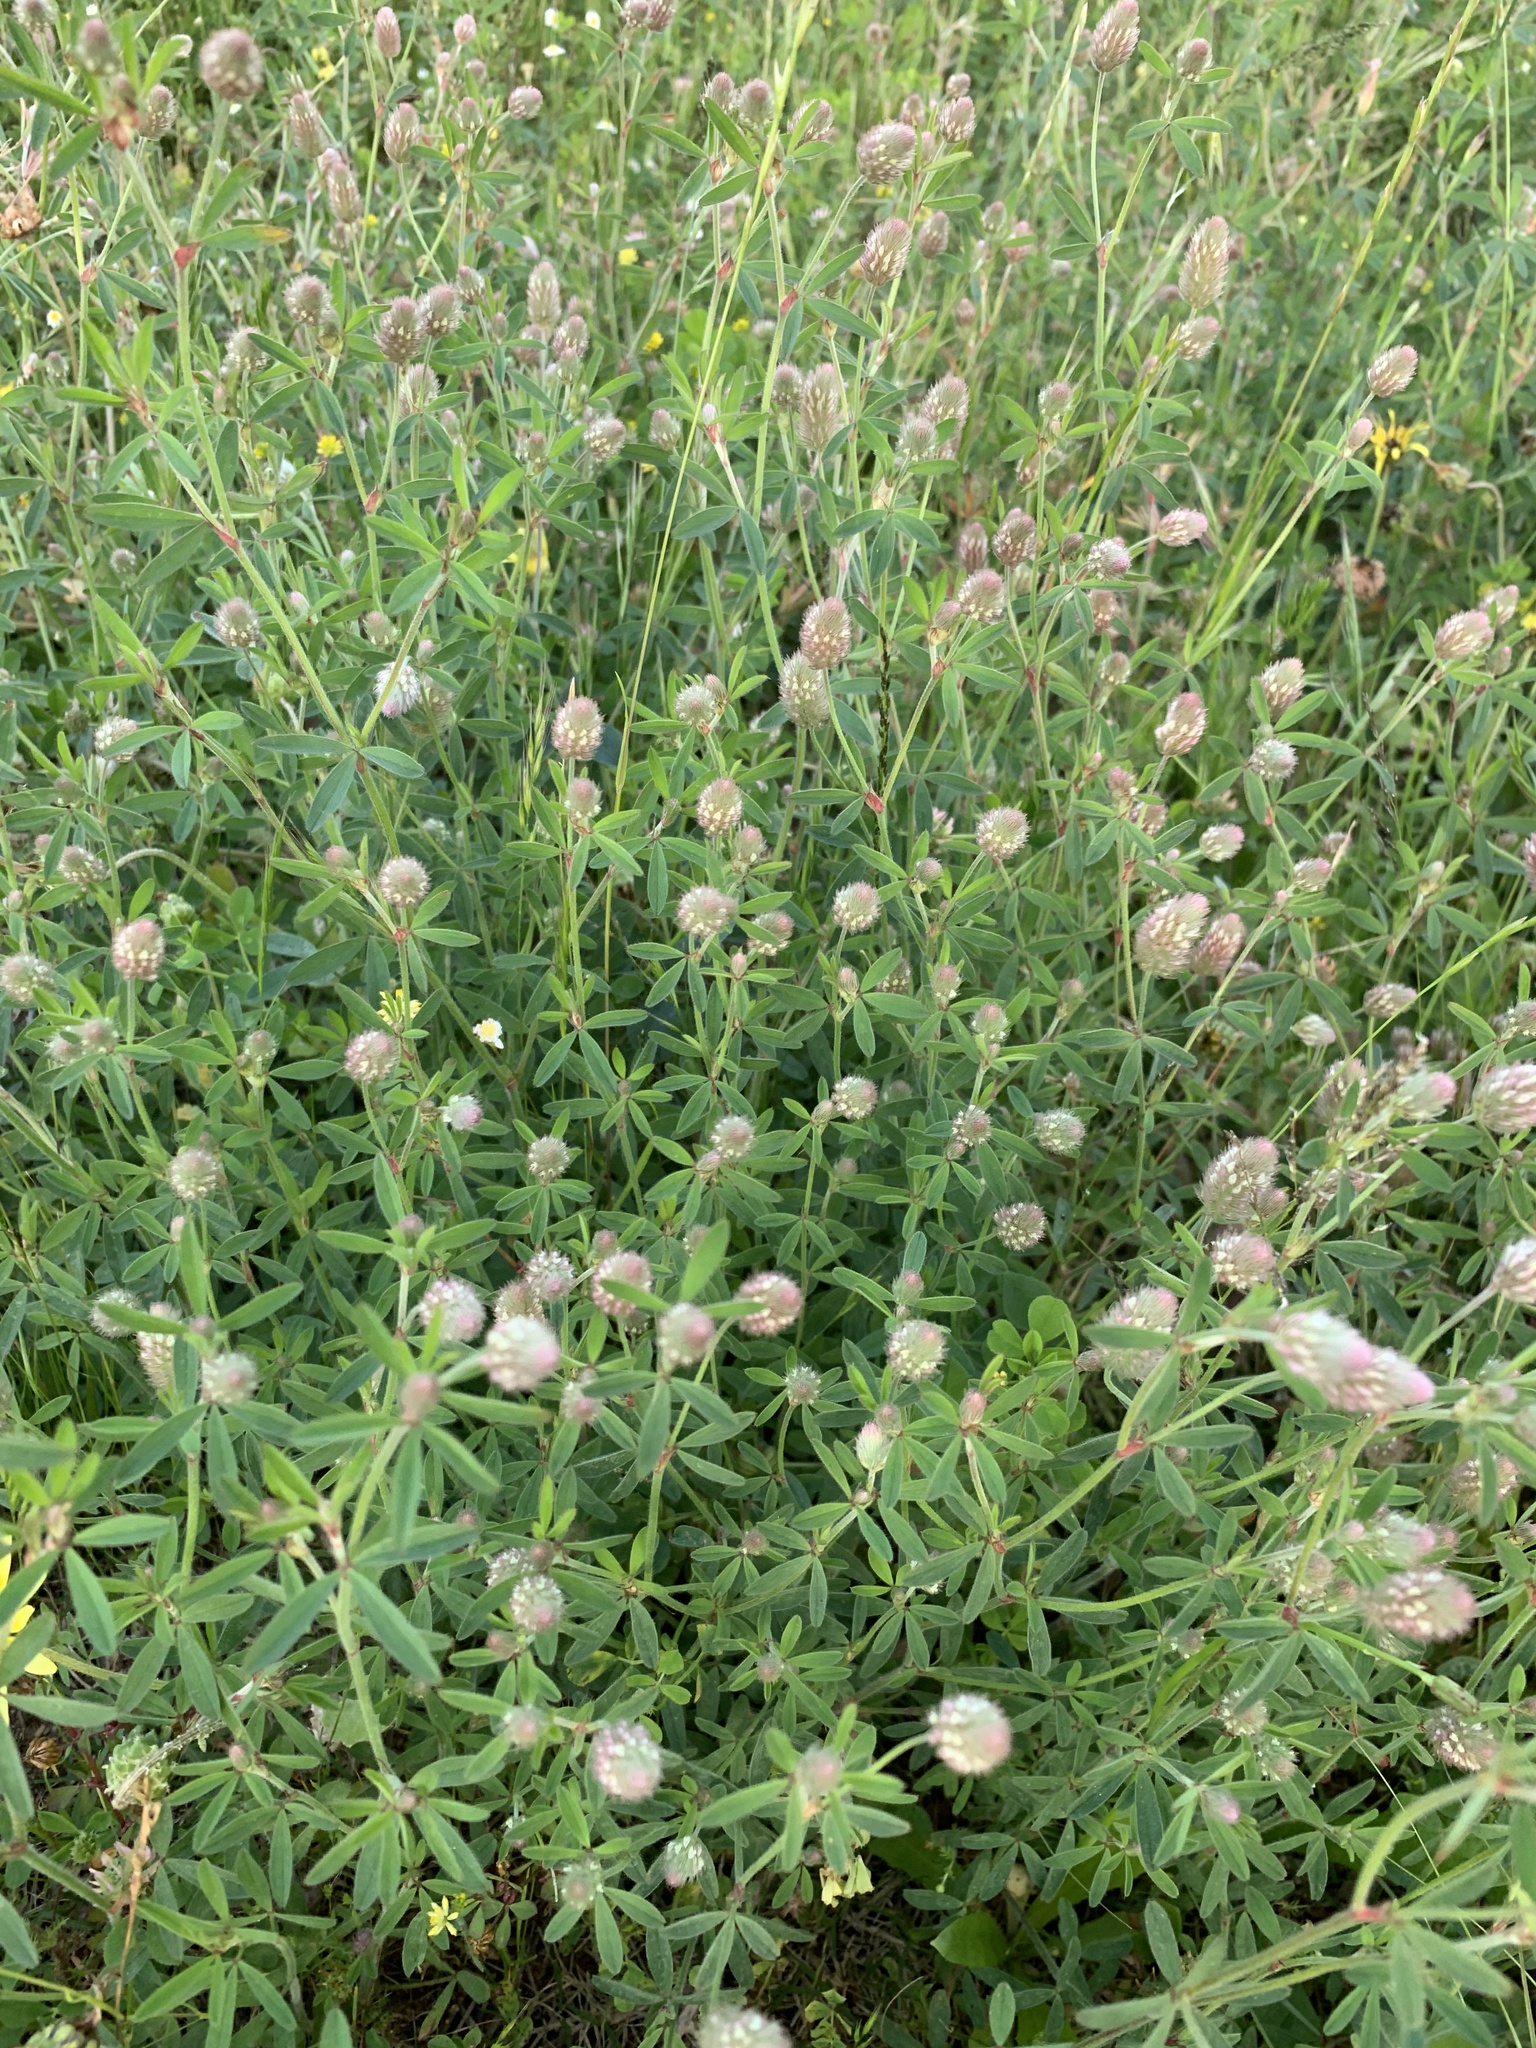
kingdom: Plantae
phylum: Tracheophyta
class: Magnoliopsida
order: Fabales
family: Fabaceae
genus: Trifolium
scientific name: Trifolium arvense
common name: Hare's-foot clover
